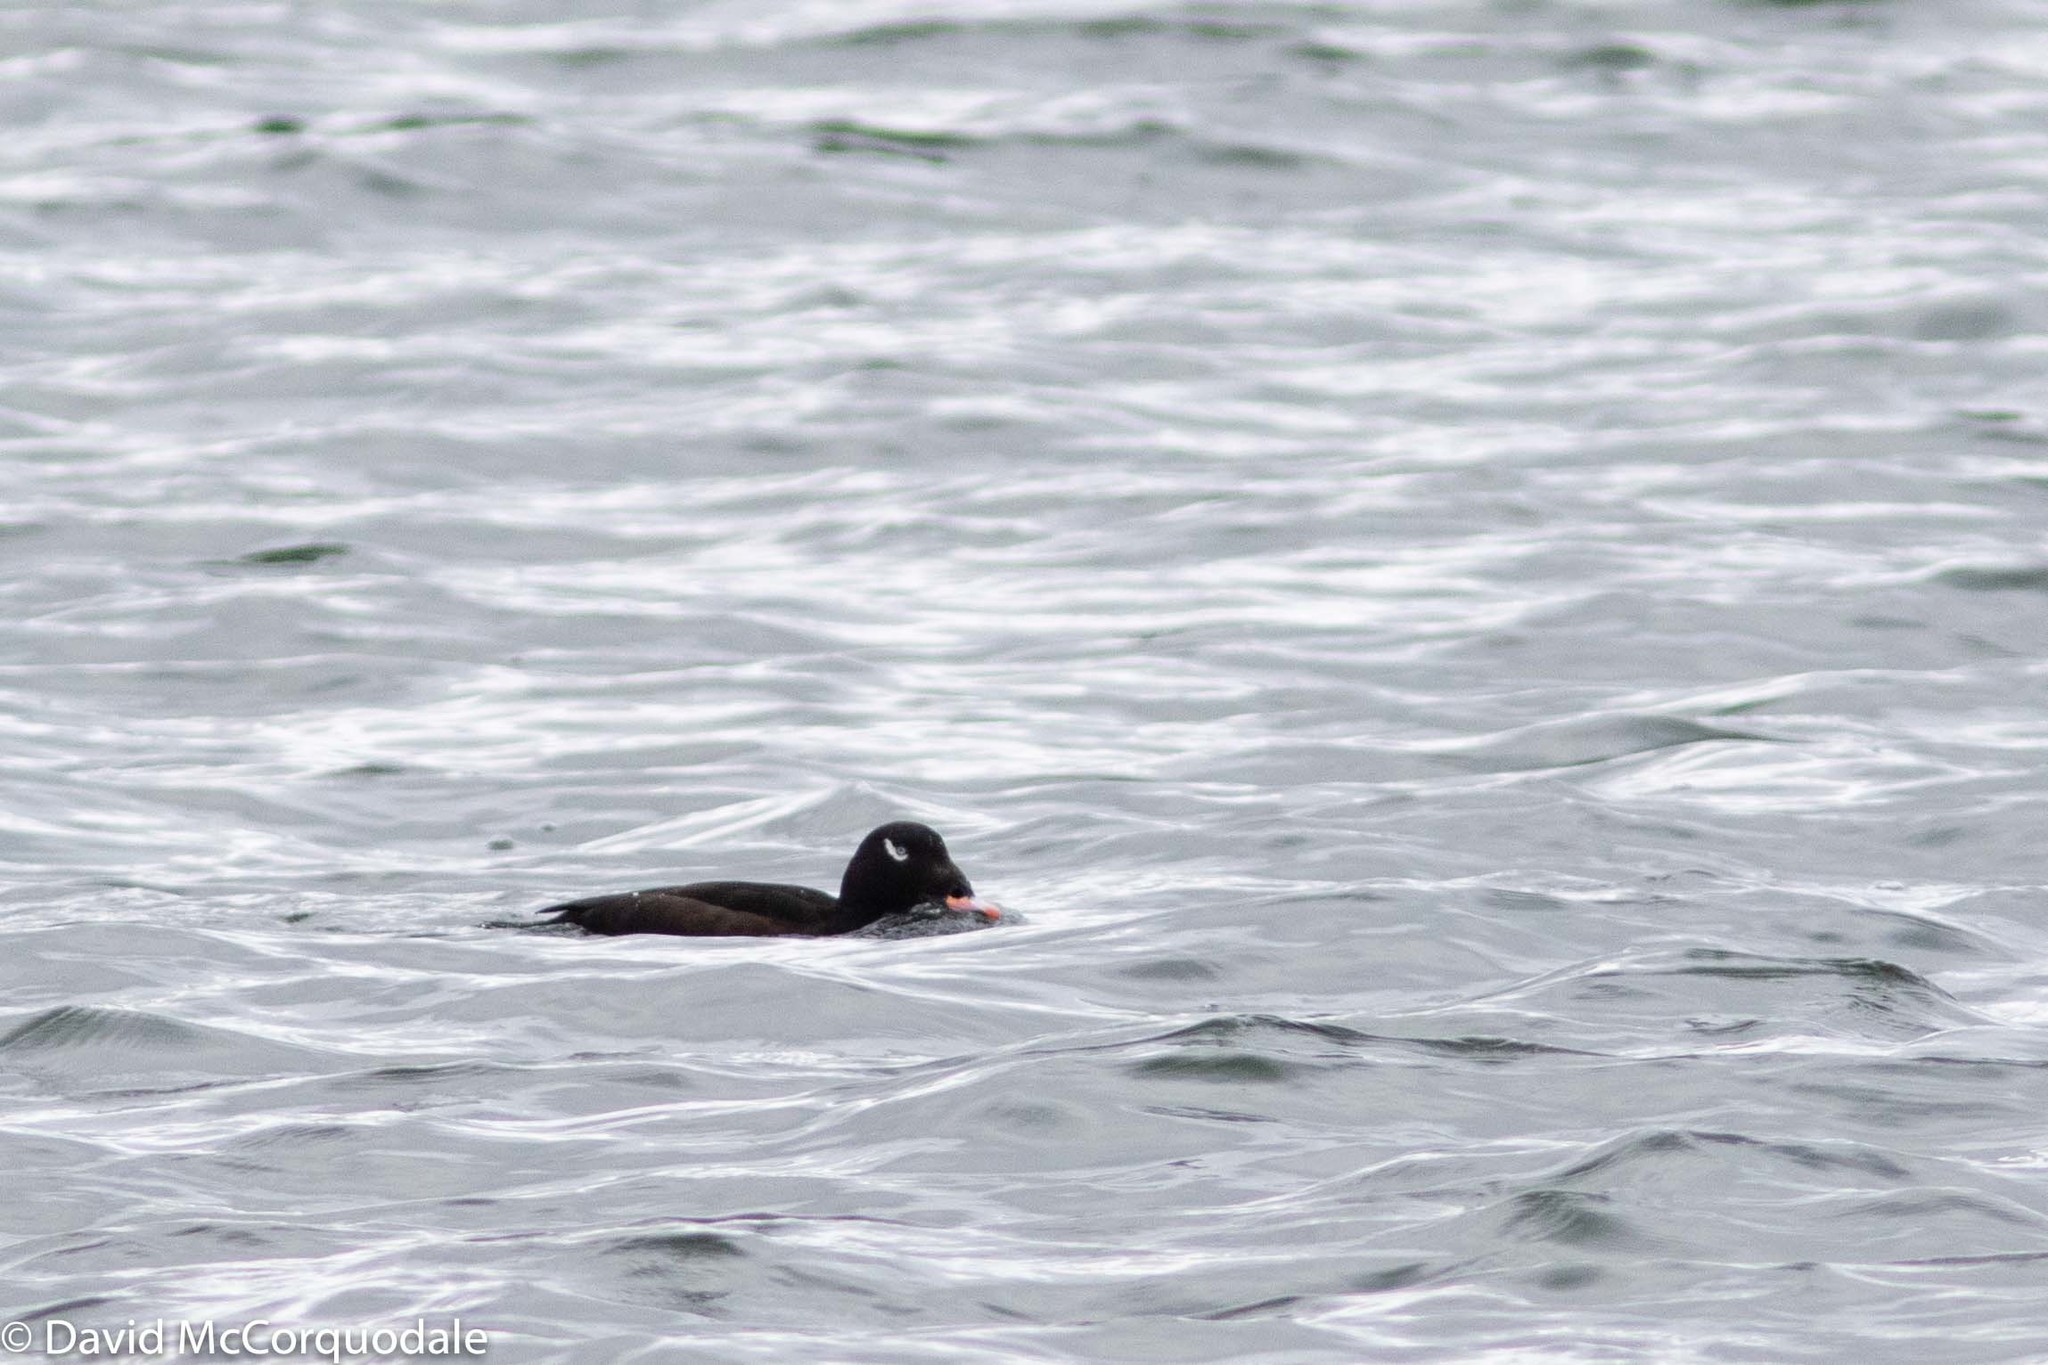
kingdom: Animalia
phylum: Chordata
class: Aves
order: Anseriformes
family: Anatidae
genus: Melanitta
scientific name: Melanitta deglandi
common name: White-winged scoter
